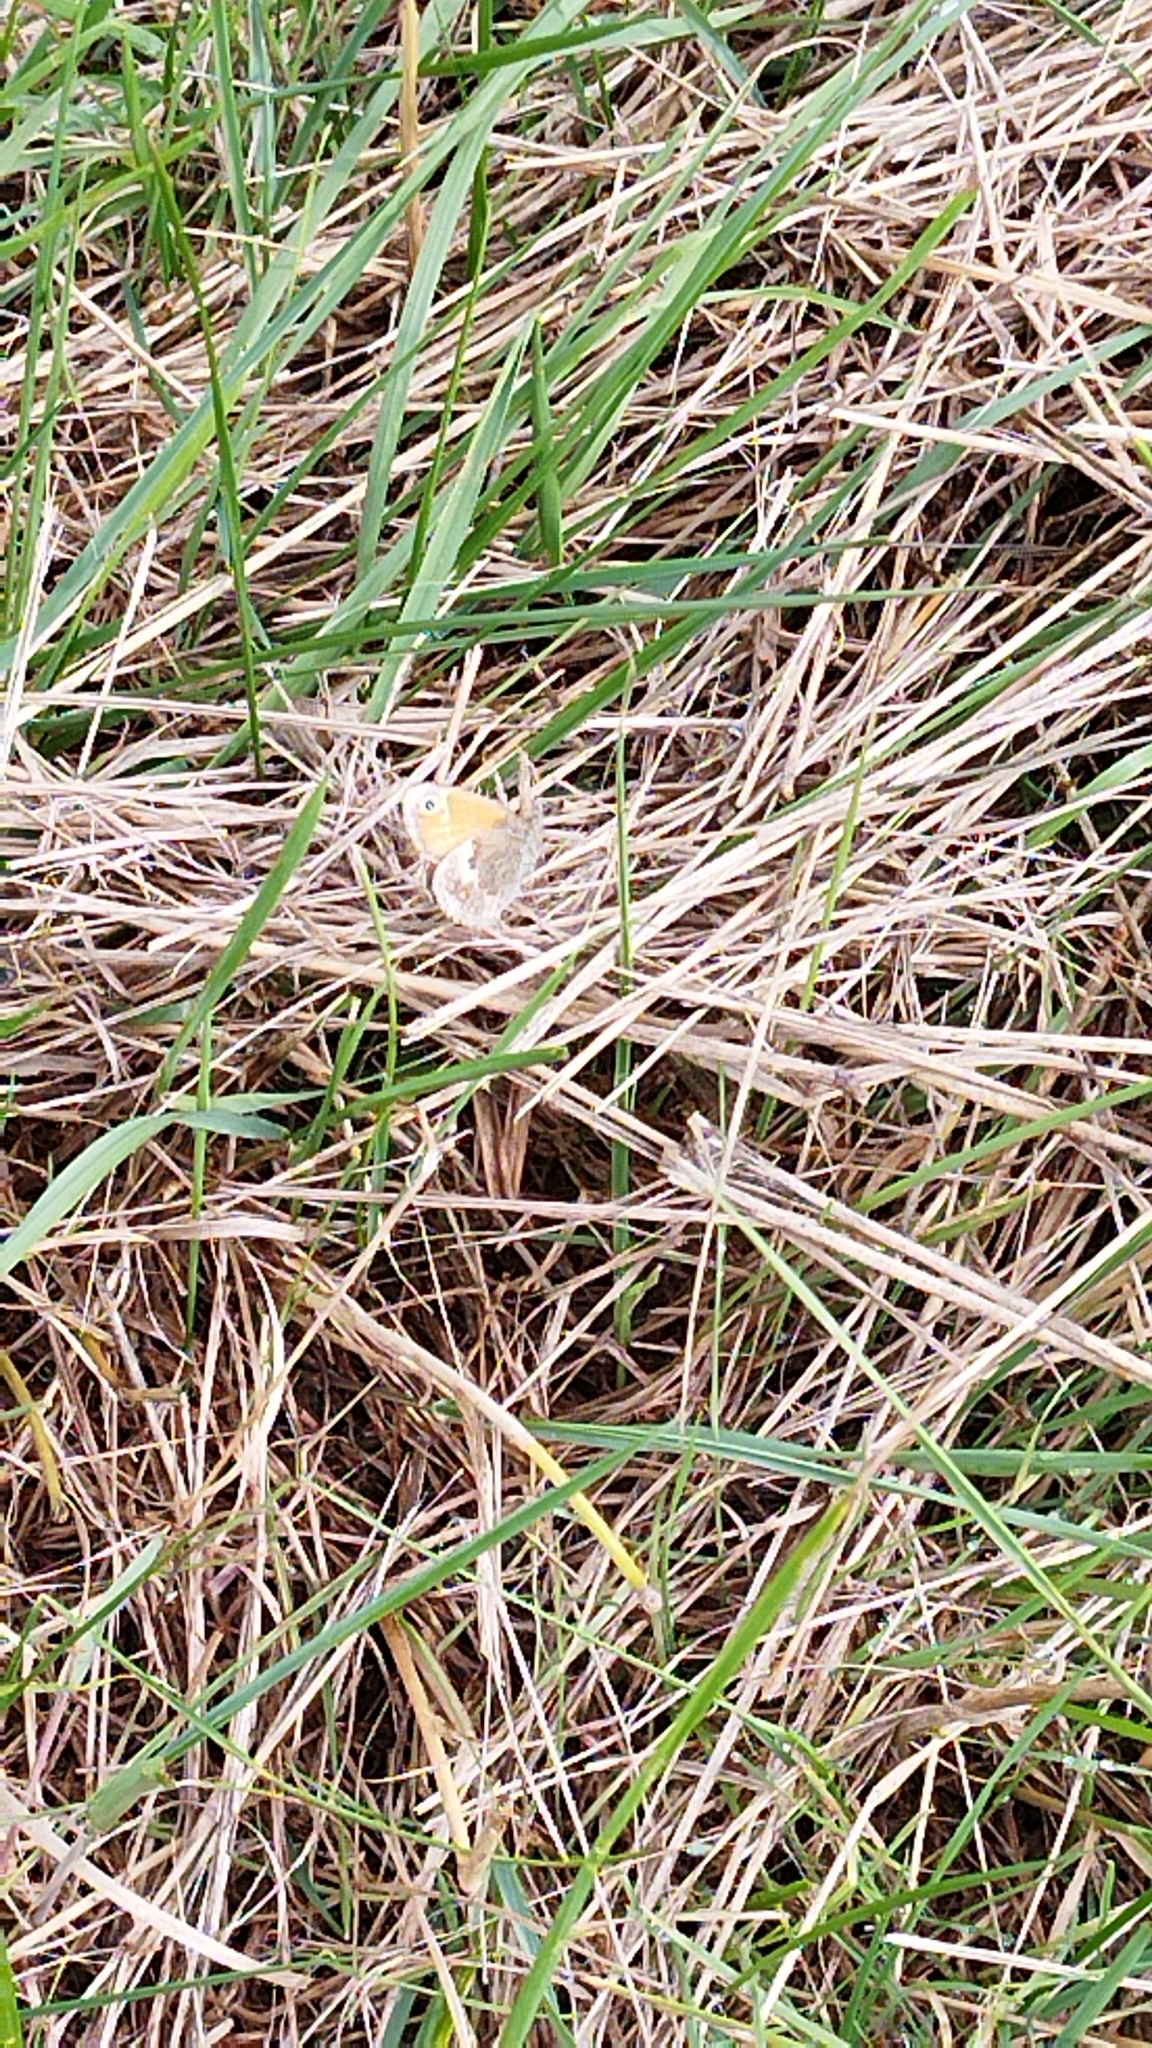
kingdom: Animalia
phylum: Arthropoda
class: Insecta
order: Lepidoptera
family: Nymphalidae
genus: Coenonympha
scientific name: Coenonympha pamphilus
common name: Small heath
